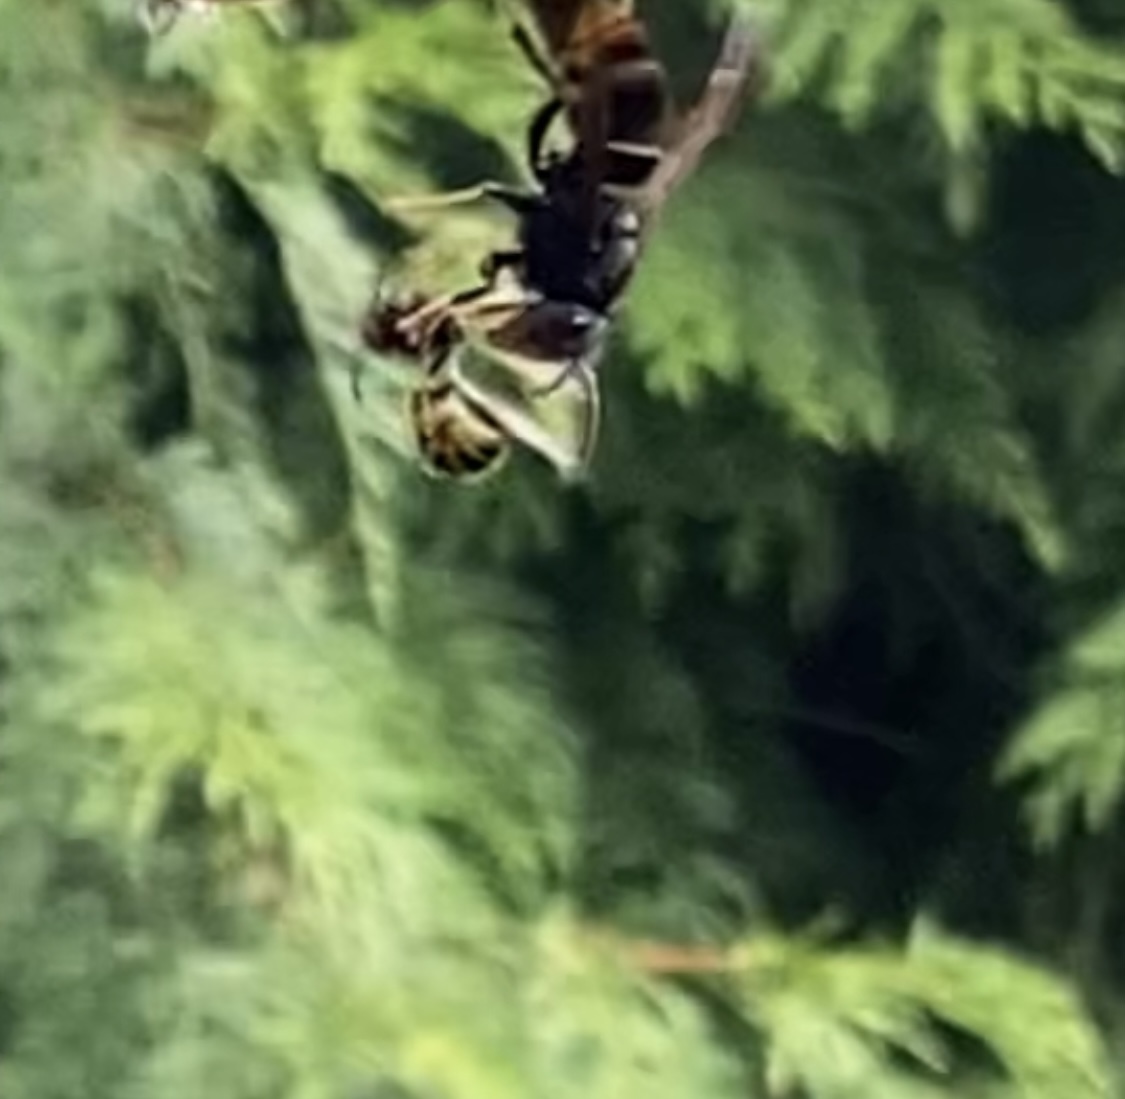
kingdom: Animalia
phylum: Arthropoda
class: Insecta
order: Hymenoptera
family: Vespidae
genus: Vespa
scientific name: Vespa velutina
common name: Asian hornet
